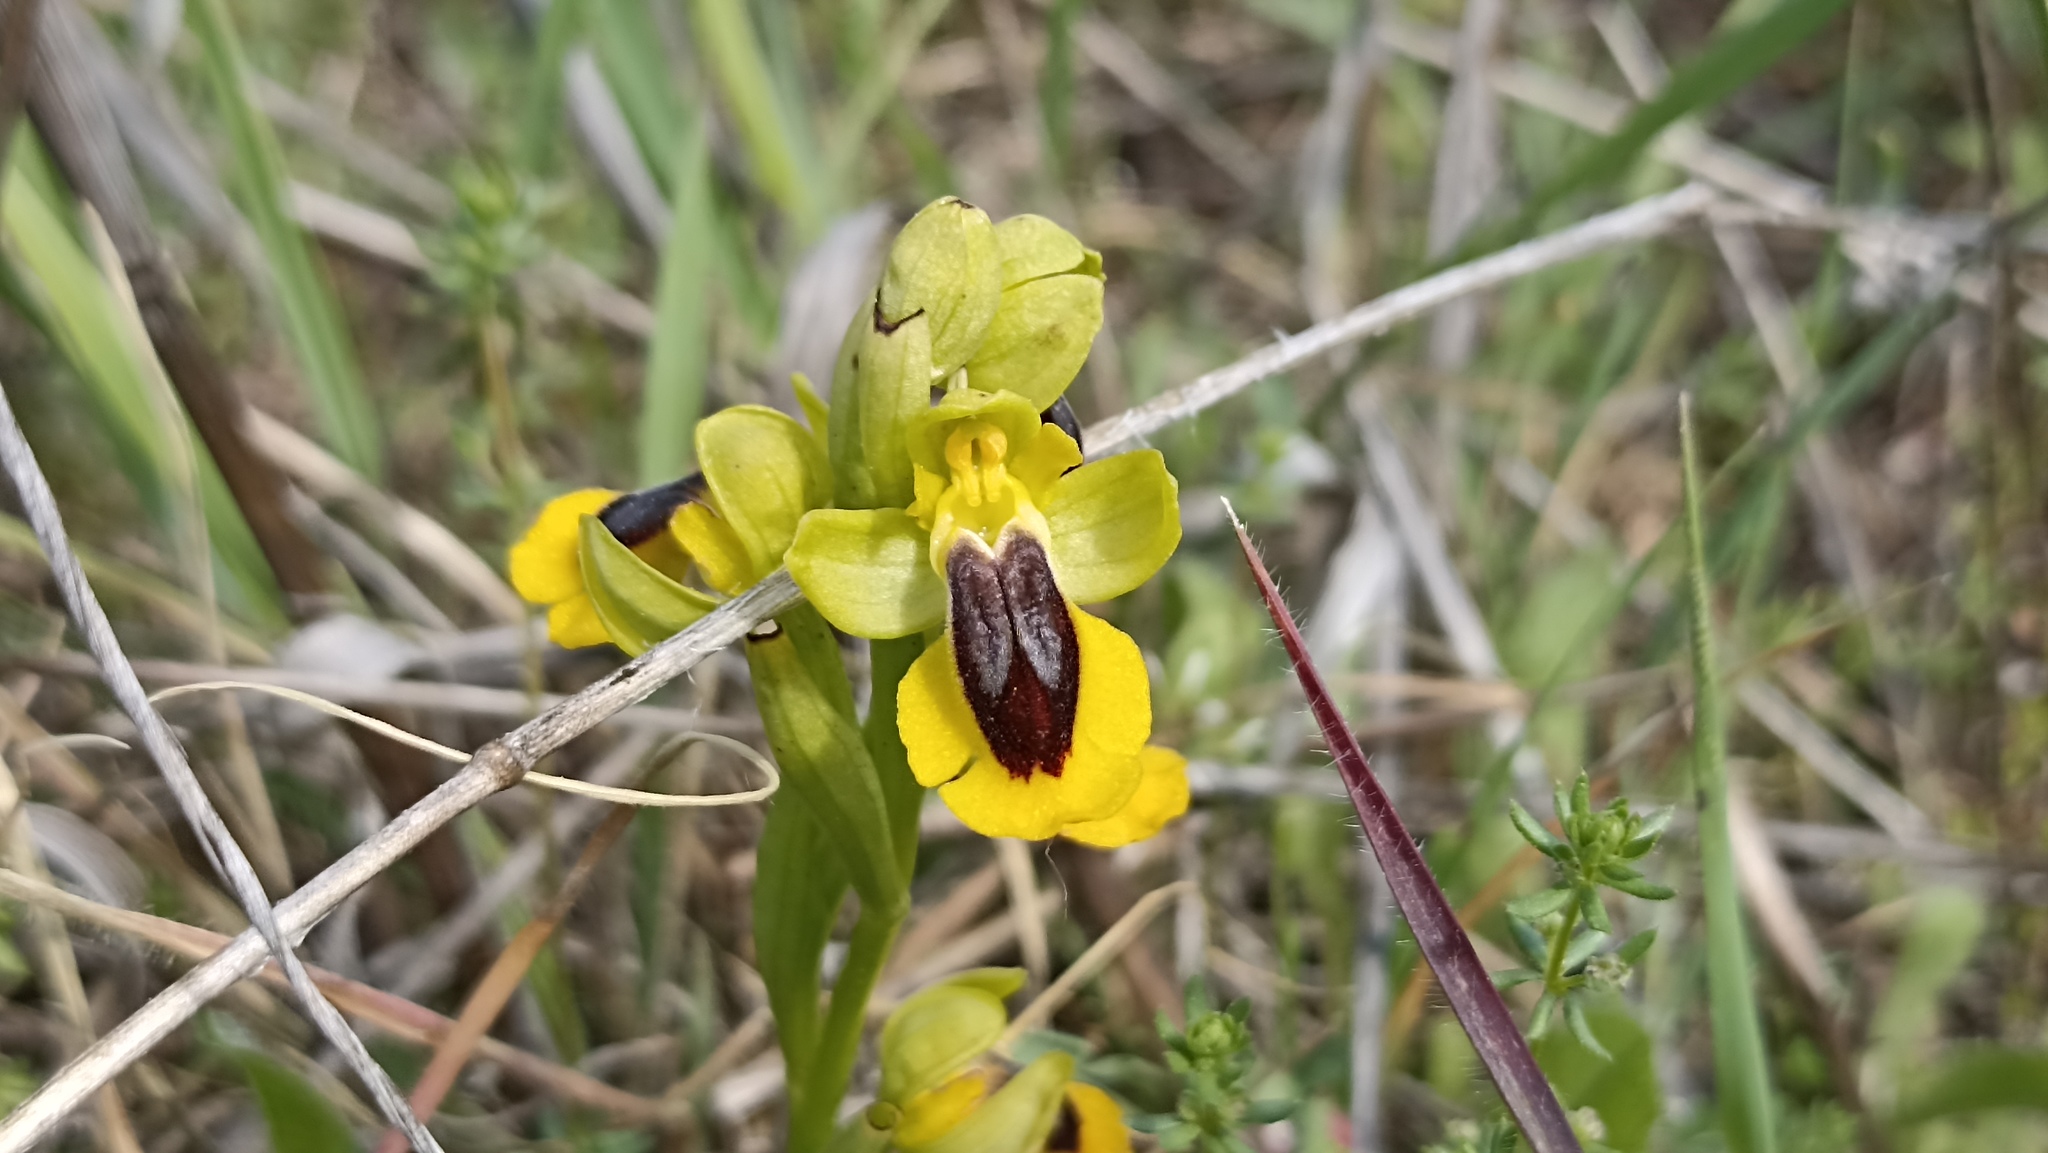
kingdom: Plantae
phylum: Tracheophyta
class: Liliopsida
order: Asparagales
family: Orchidaceae
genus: Ophrys
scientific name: Ophrys lutea
